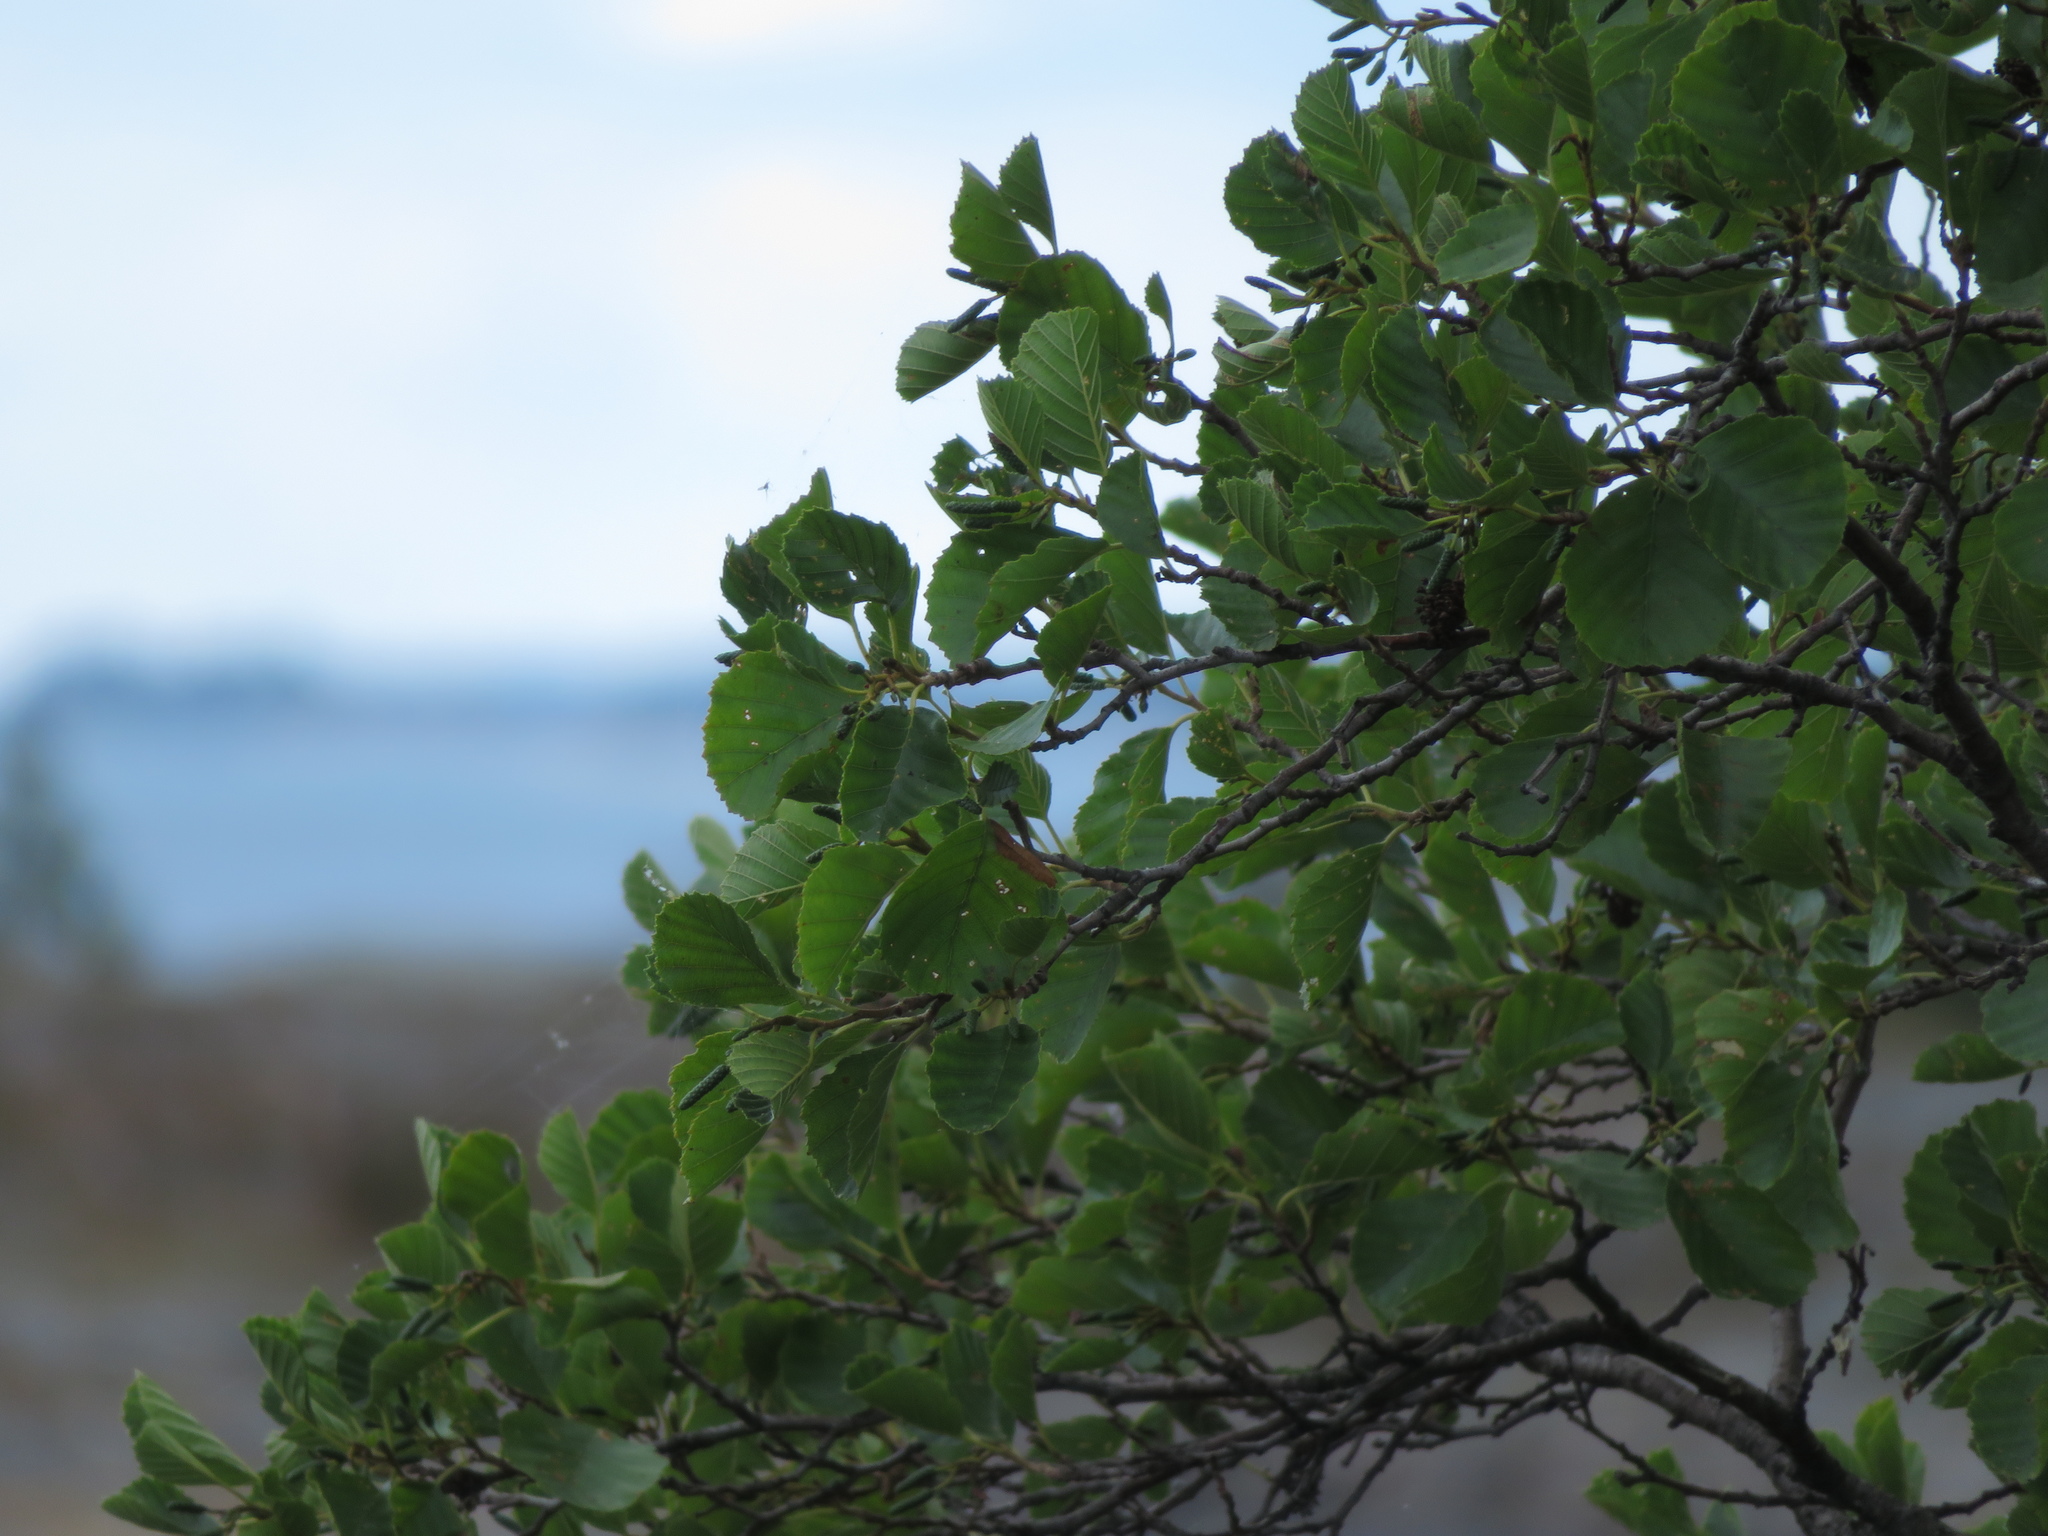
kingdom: Plantae
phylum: Tracheophyta
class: Magnoliopsida
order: Fagales
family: Betulaceae
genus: Alnus
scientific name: Alnus glutinosa
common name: Black alder
